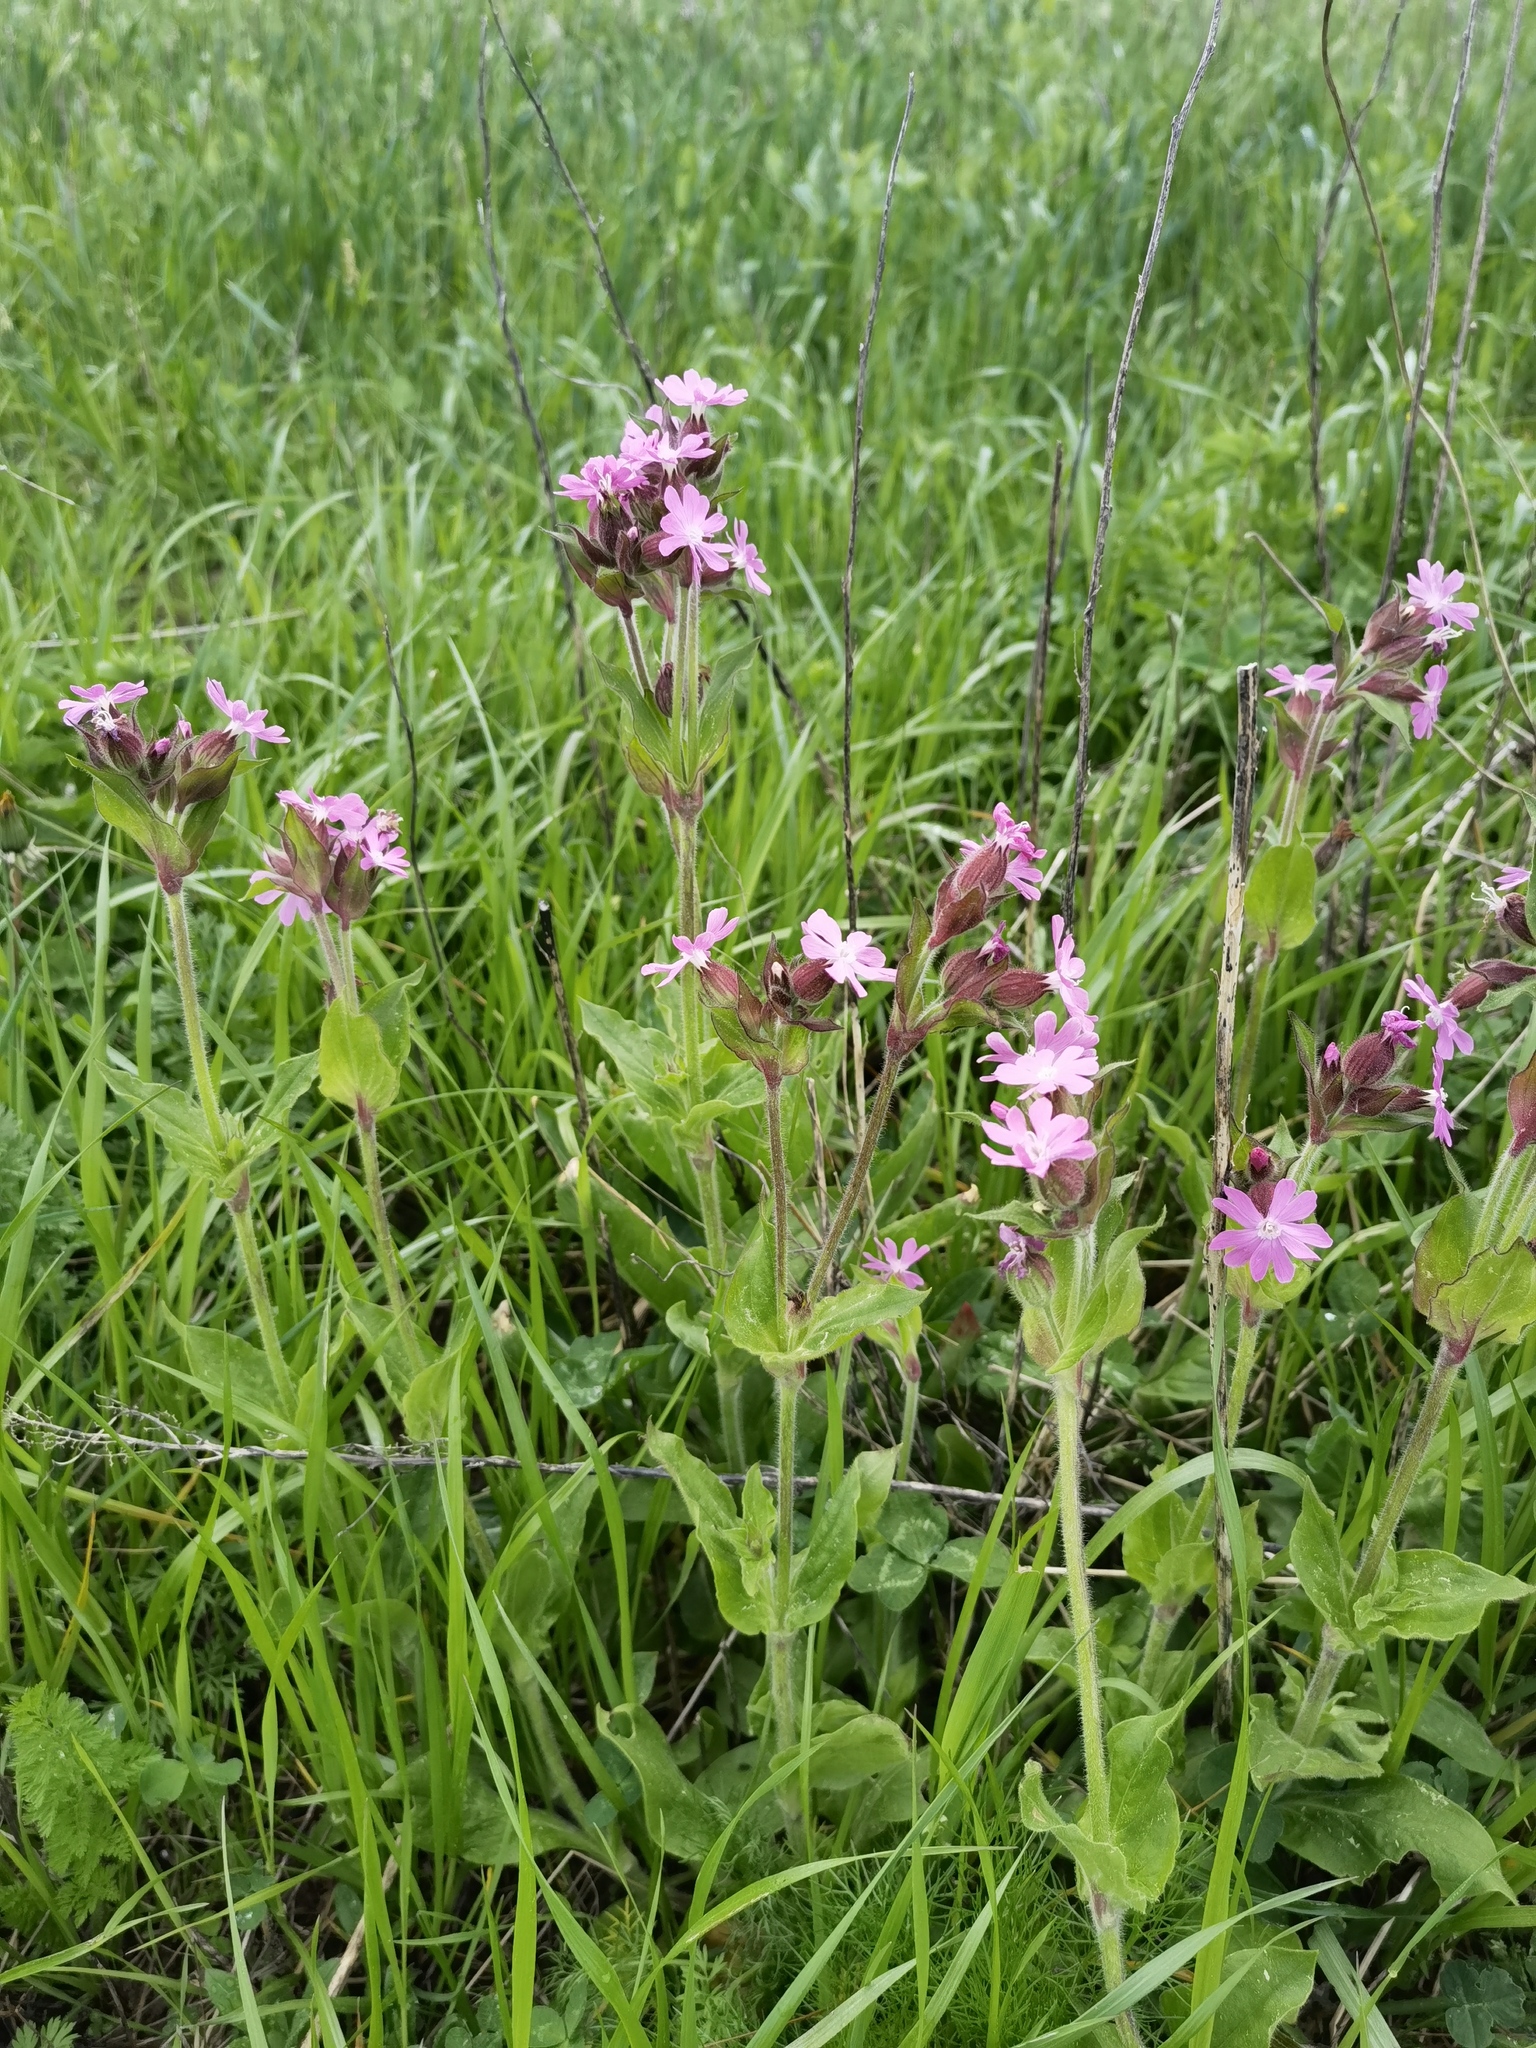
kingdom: Plantae
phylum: Tracheophyta
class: Magnoliopsida
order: Caryophyllales
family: Caryophyllaceae
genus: Silene
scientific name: Silene dioica
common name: Red campion
